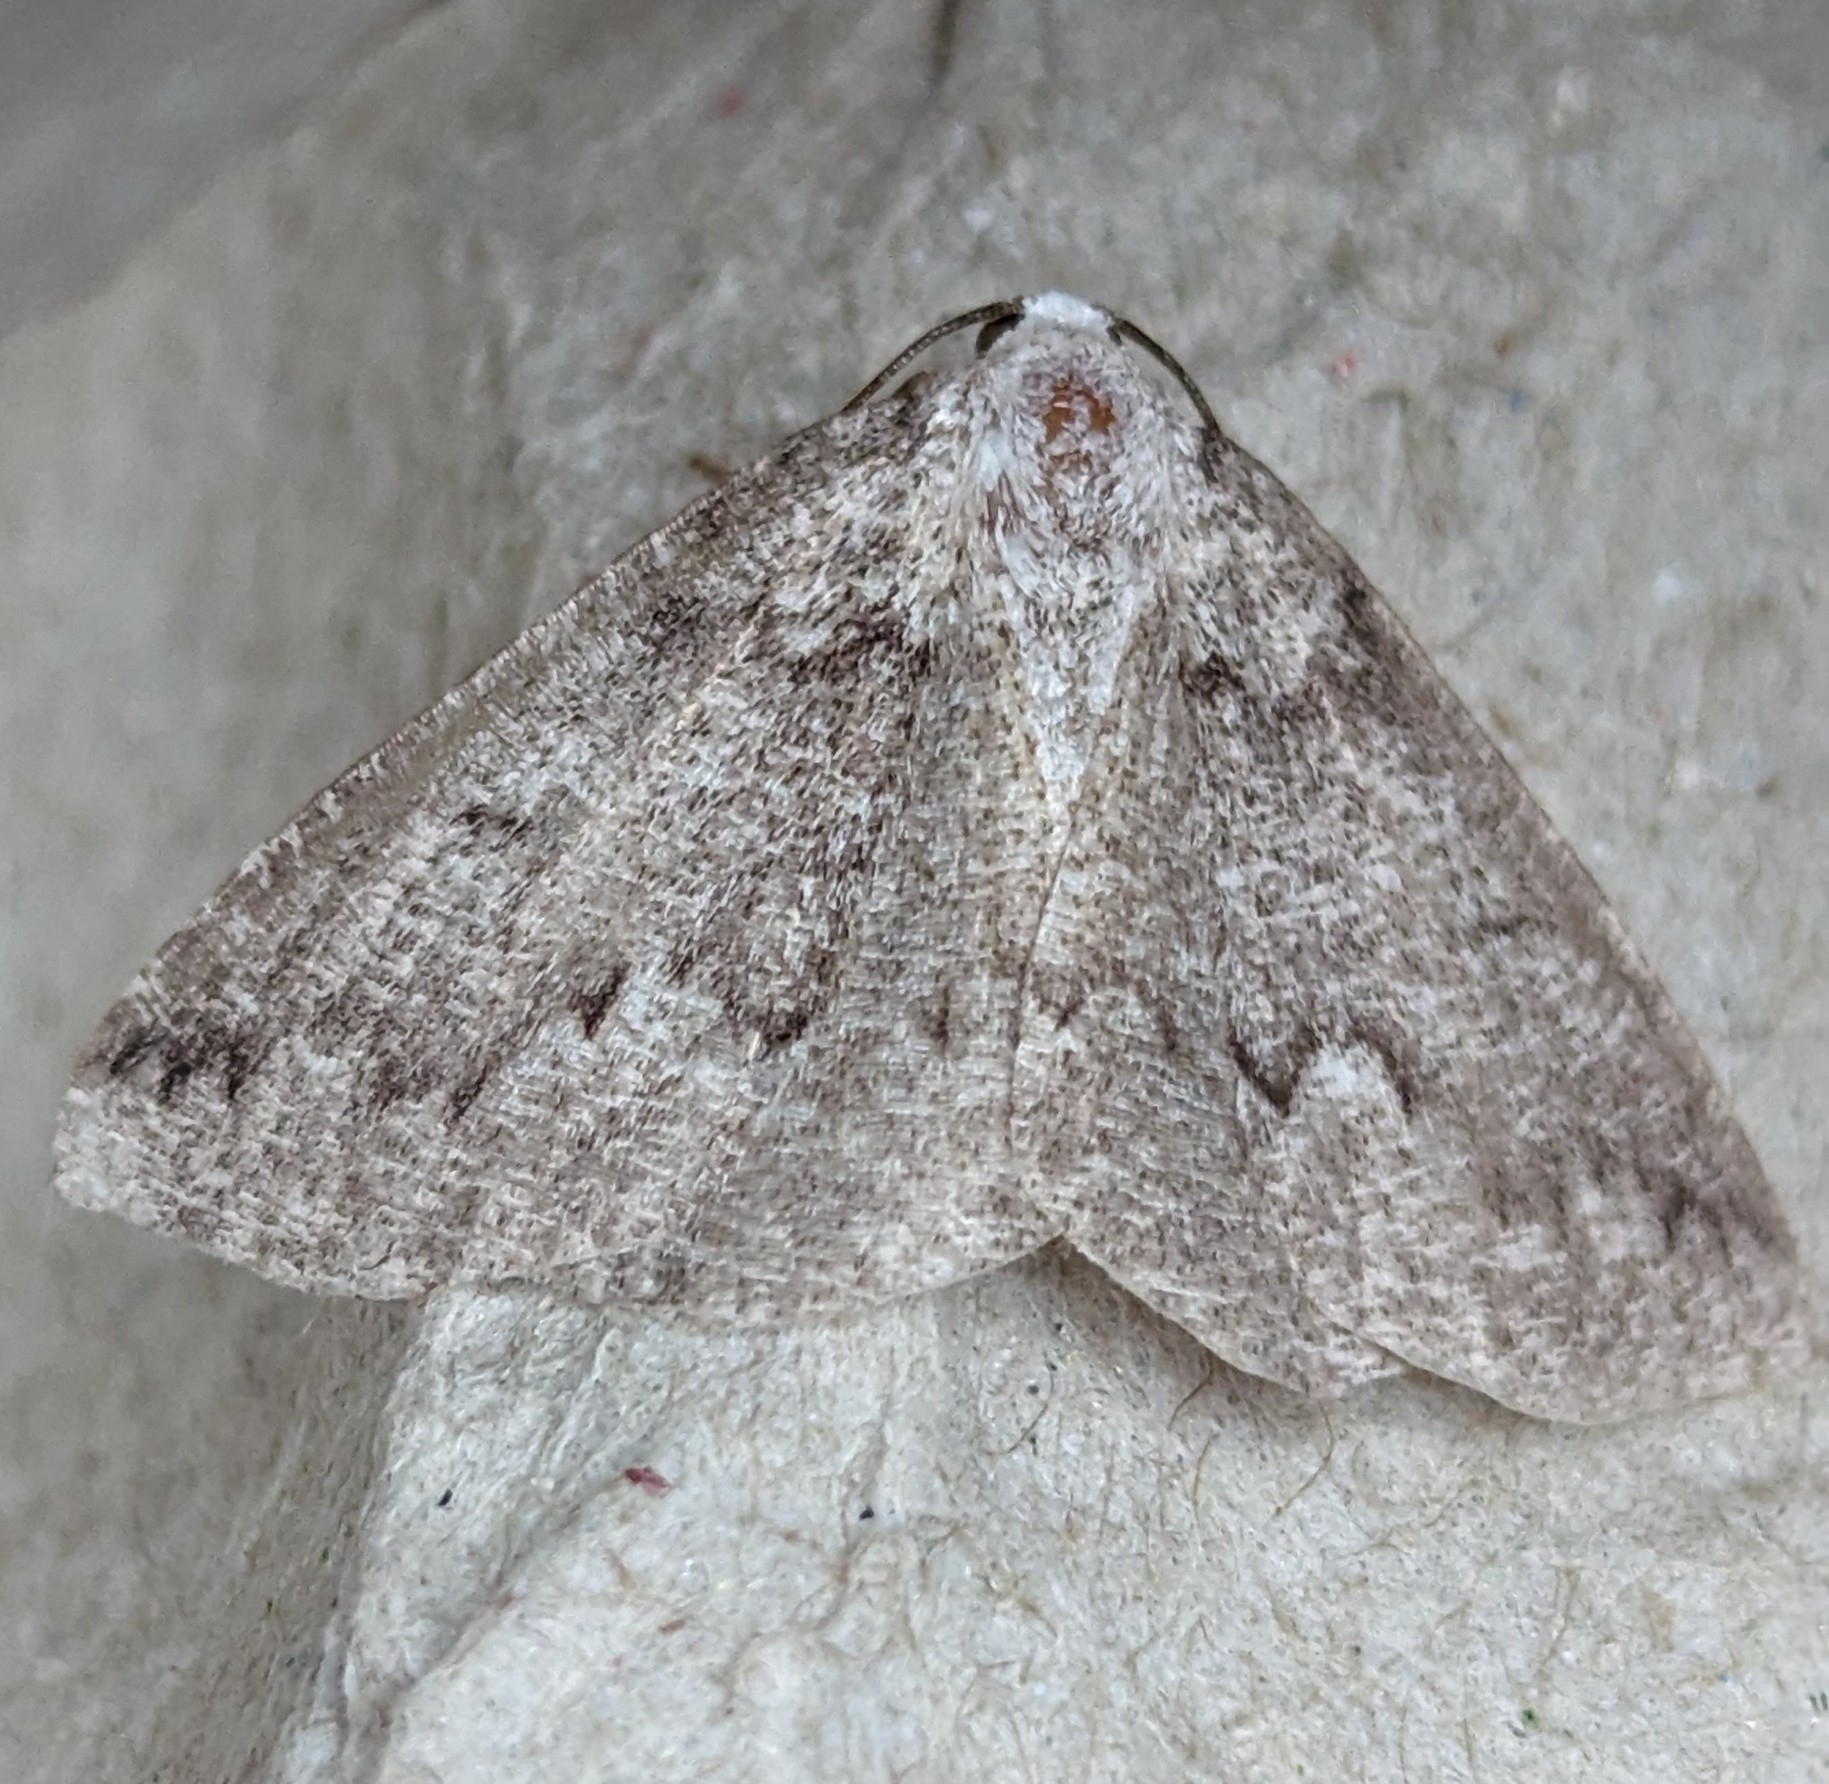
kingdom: Animalia
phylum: Arthropoda
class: Insecta
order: Lepidoptera
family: Geometridae
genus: Sabulodes
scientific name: Sabulodes
